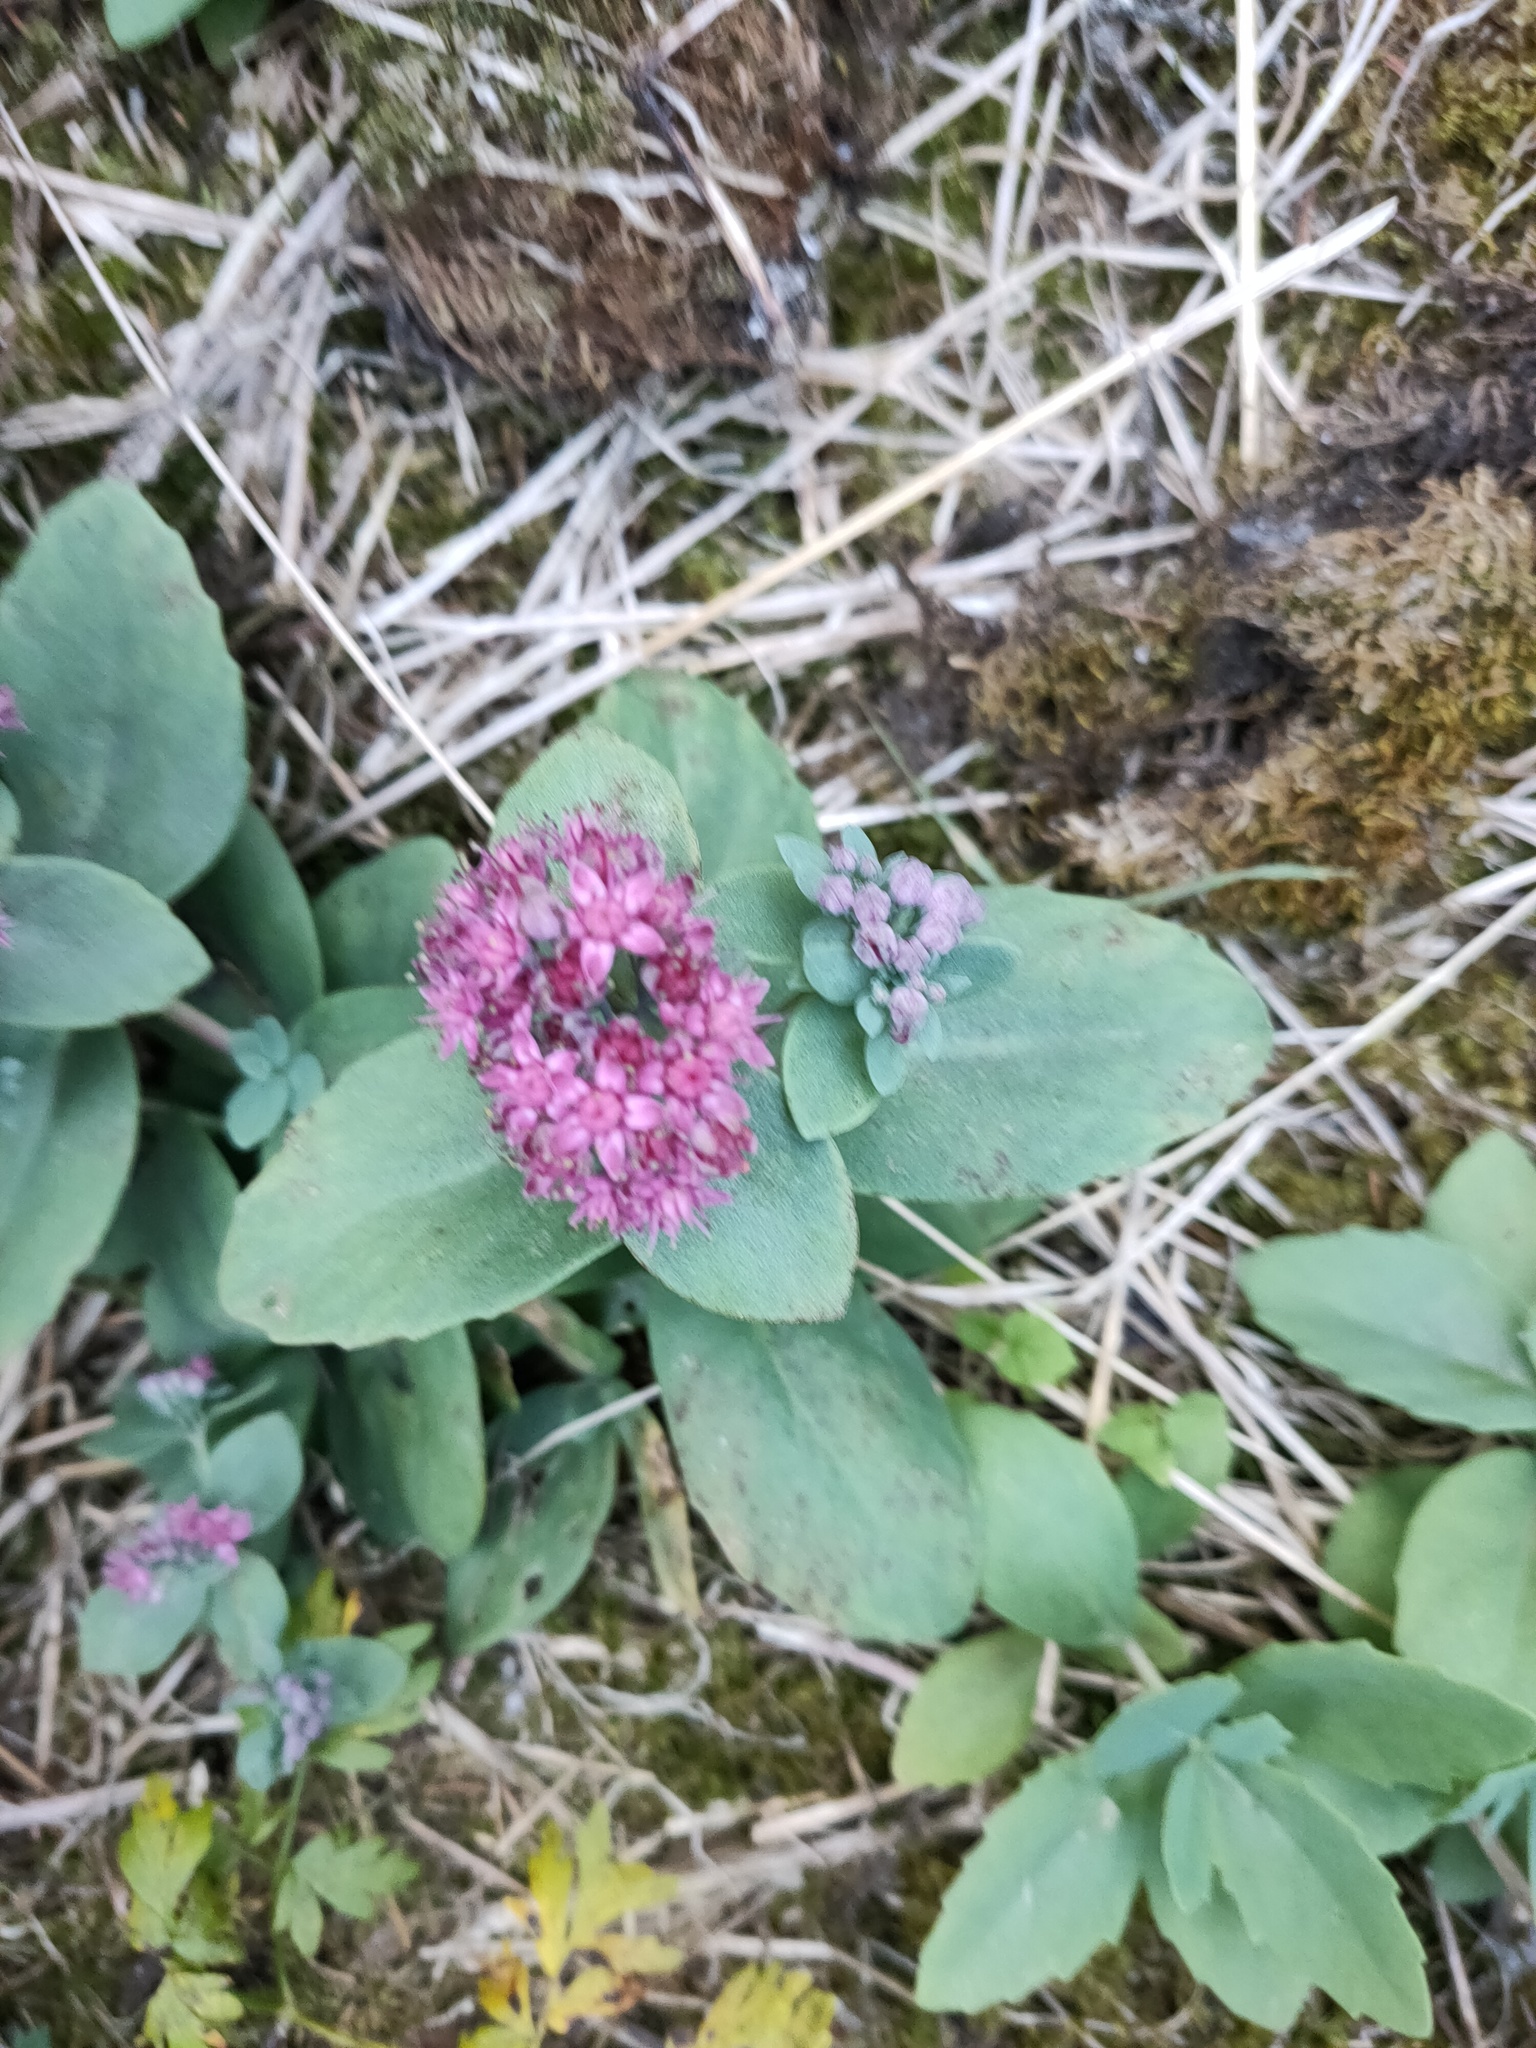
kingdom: Plantae
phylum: Tracheophyta
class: Magnoliopsida
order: Saxifragales
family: Crassulaceae
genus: Hylotelephium
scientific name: Hylotelephium telephium
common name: Live-forever
